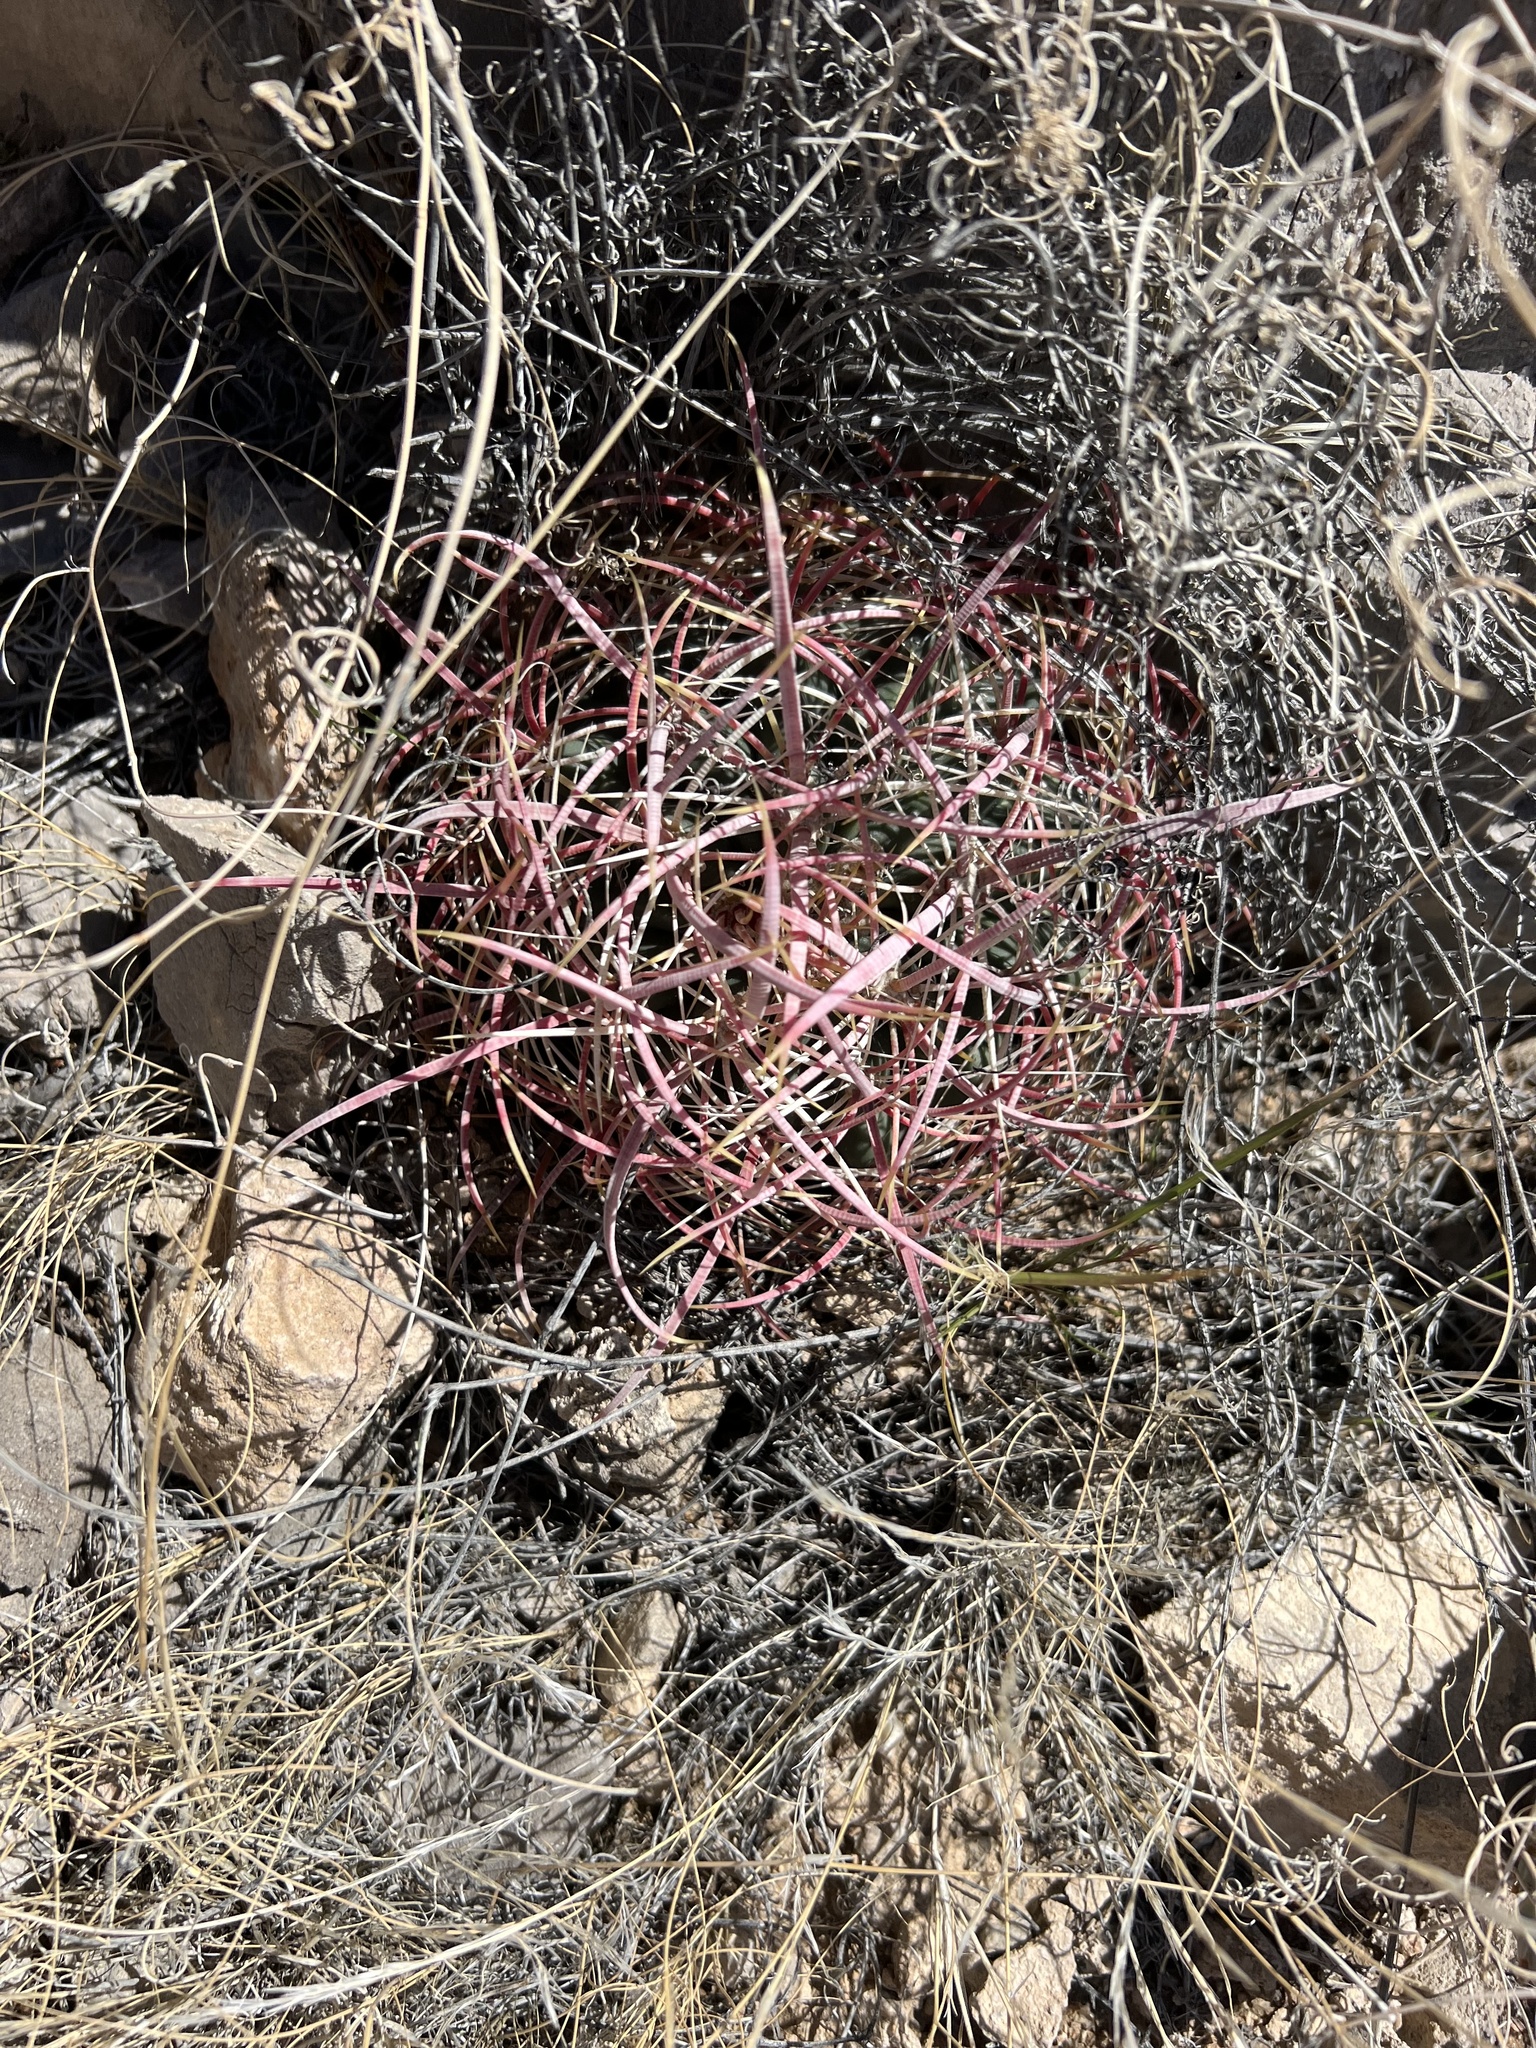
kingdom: Plantae
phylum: Tracheophyta
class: Magnoliopsida
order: Caryophyllales
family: Cactaceae
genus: Ferocactus
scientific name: Ferocactus cylindraceus
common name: California barrel cactus
